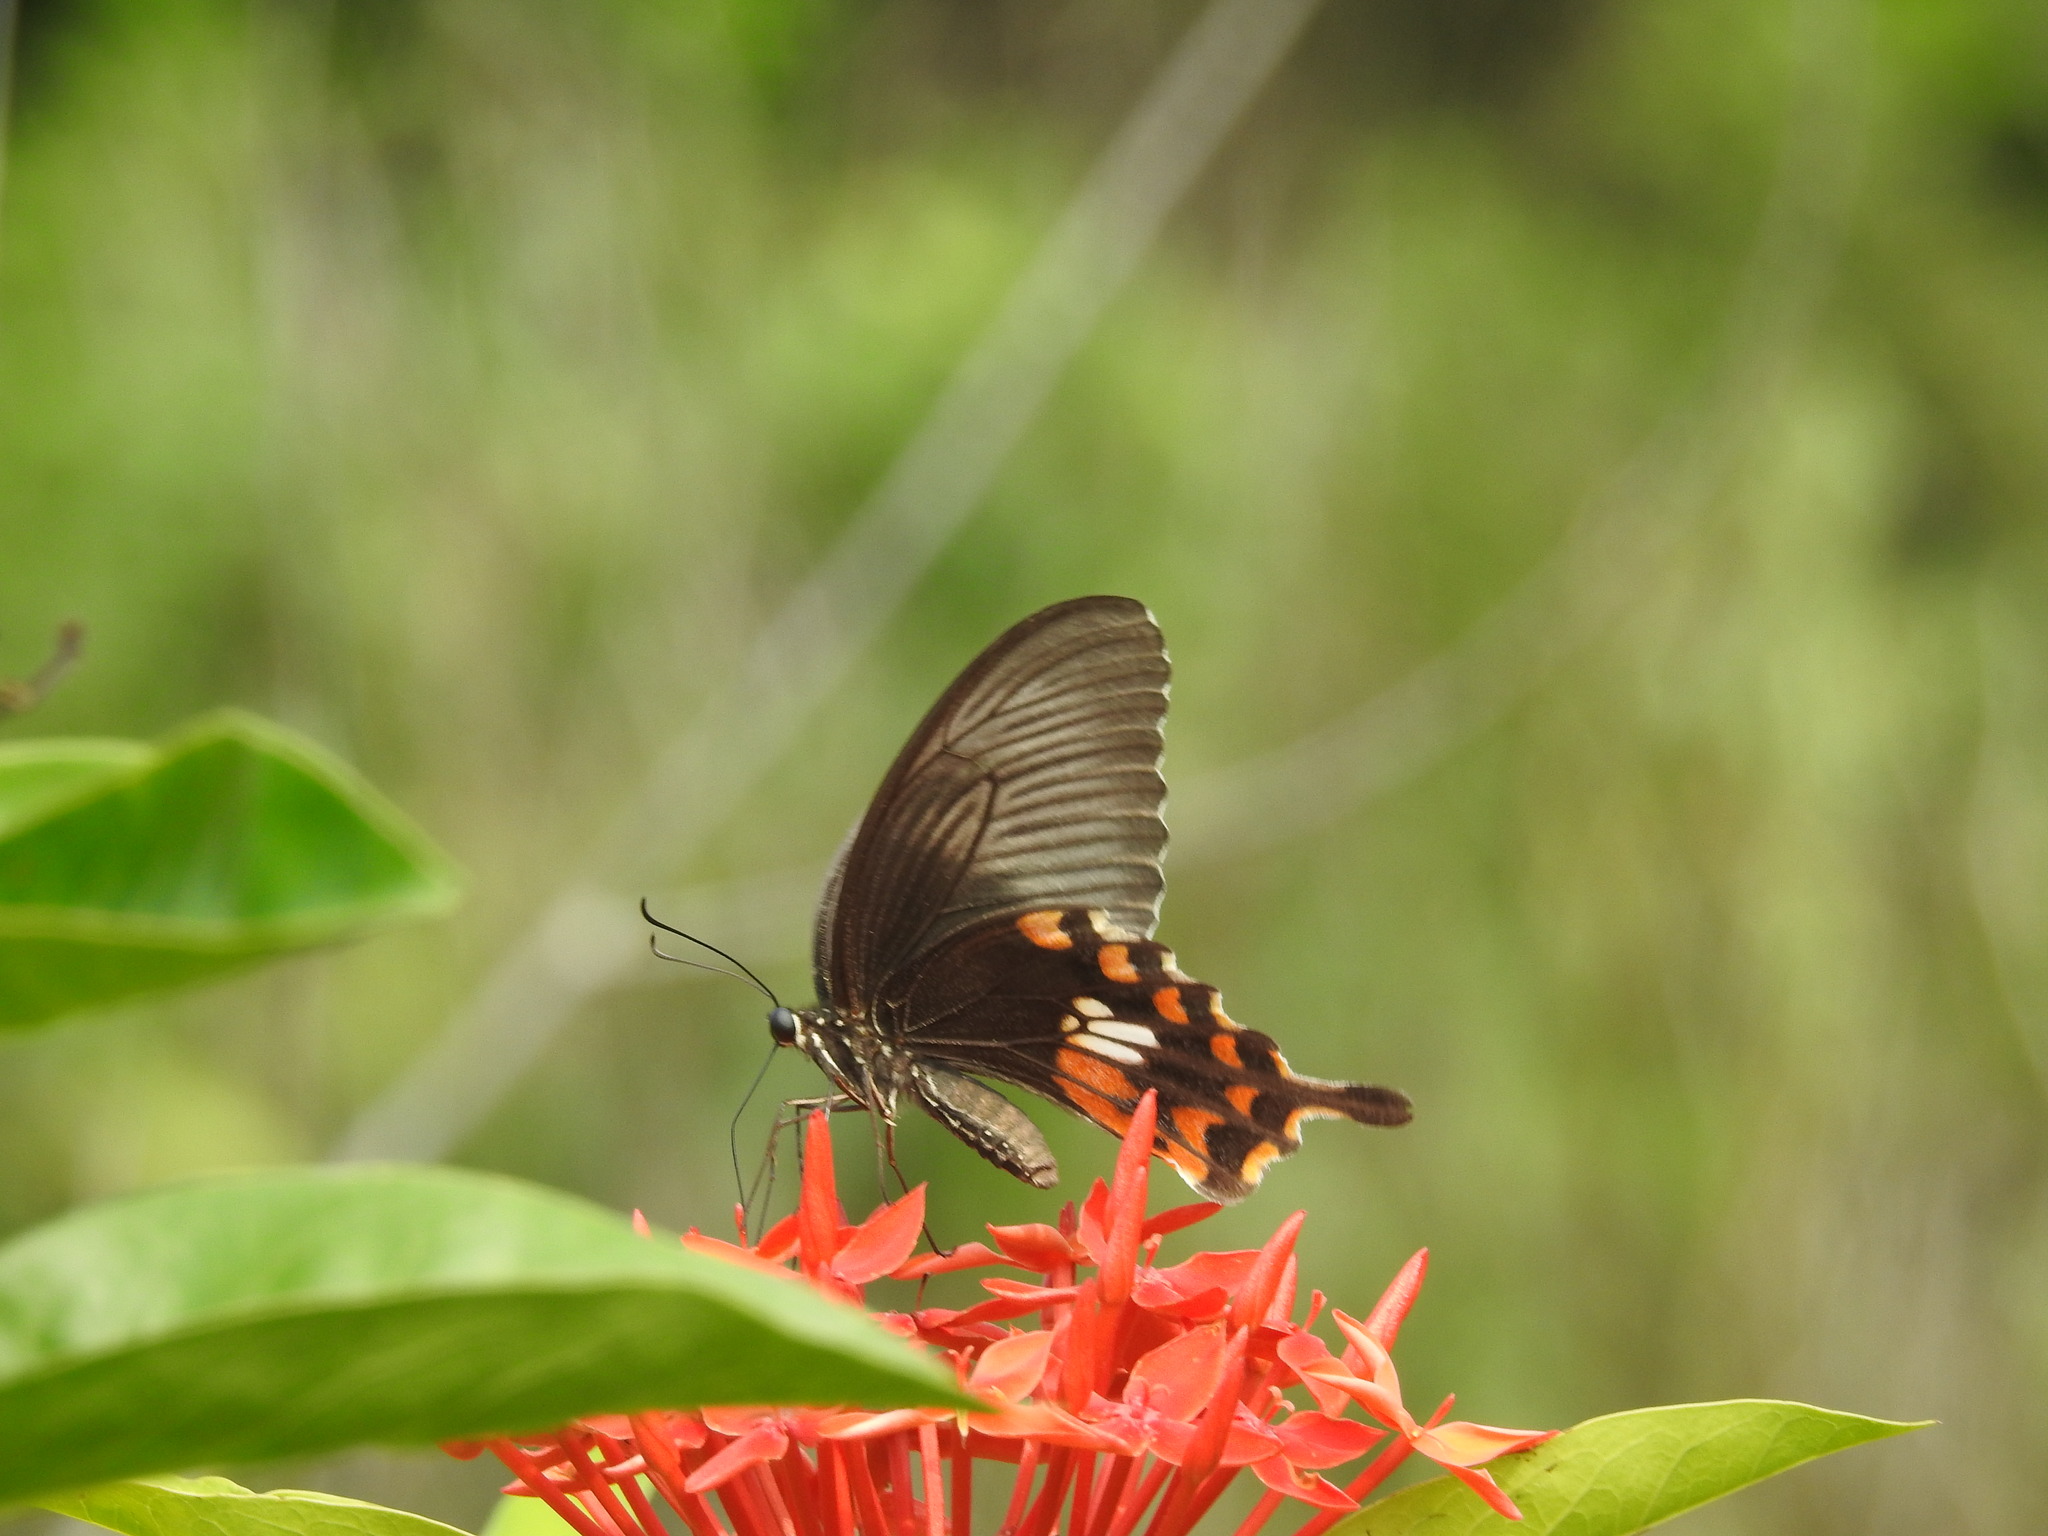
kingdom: Animalia
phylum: Arthropoda
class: Insecta
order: Lepidoptera
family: Papilionidae
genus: Papilio
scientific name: Papilio polytes
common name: Common mormon
